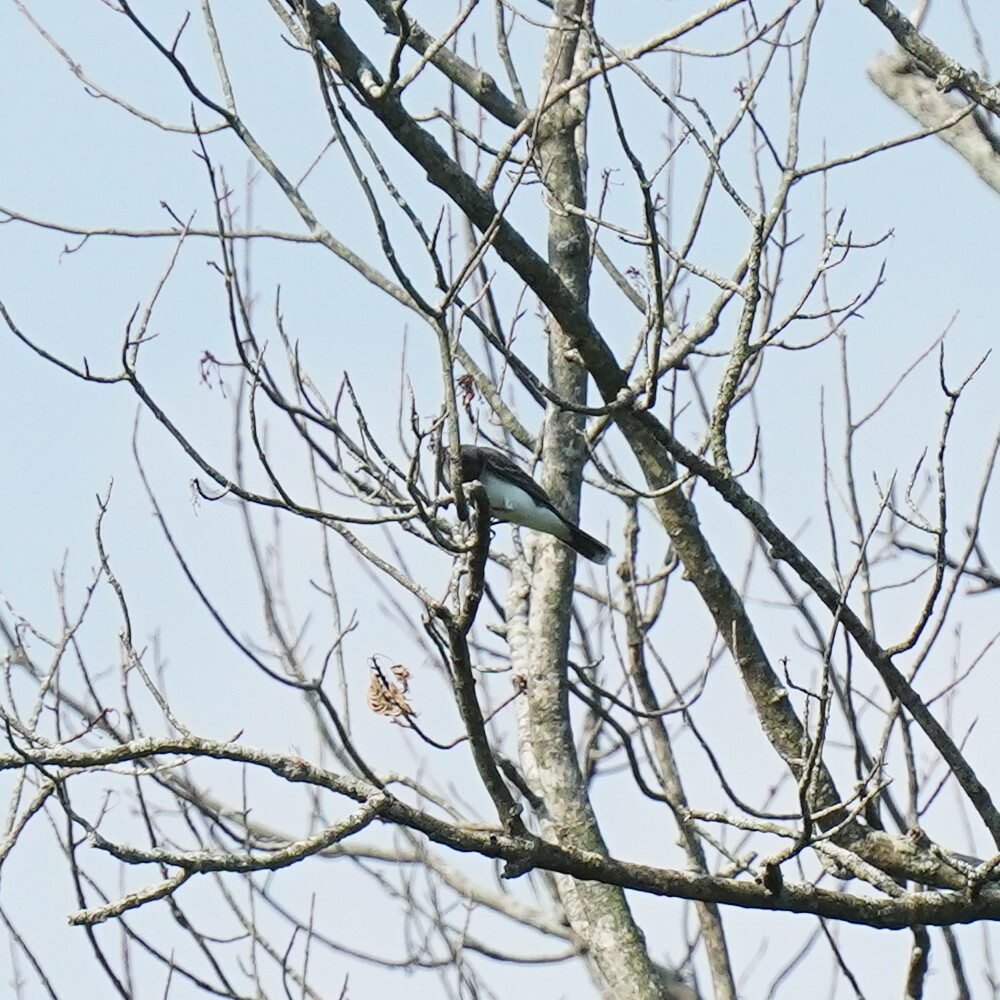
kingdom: Animalia
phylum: Chordata
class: Aves
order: Passeriformes
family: Tyrannidae
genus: Tyrannus
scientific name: Tyrannus tyrannus
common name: Eastern kingbird
